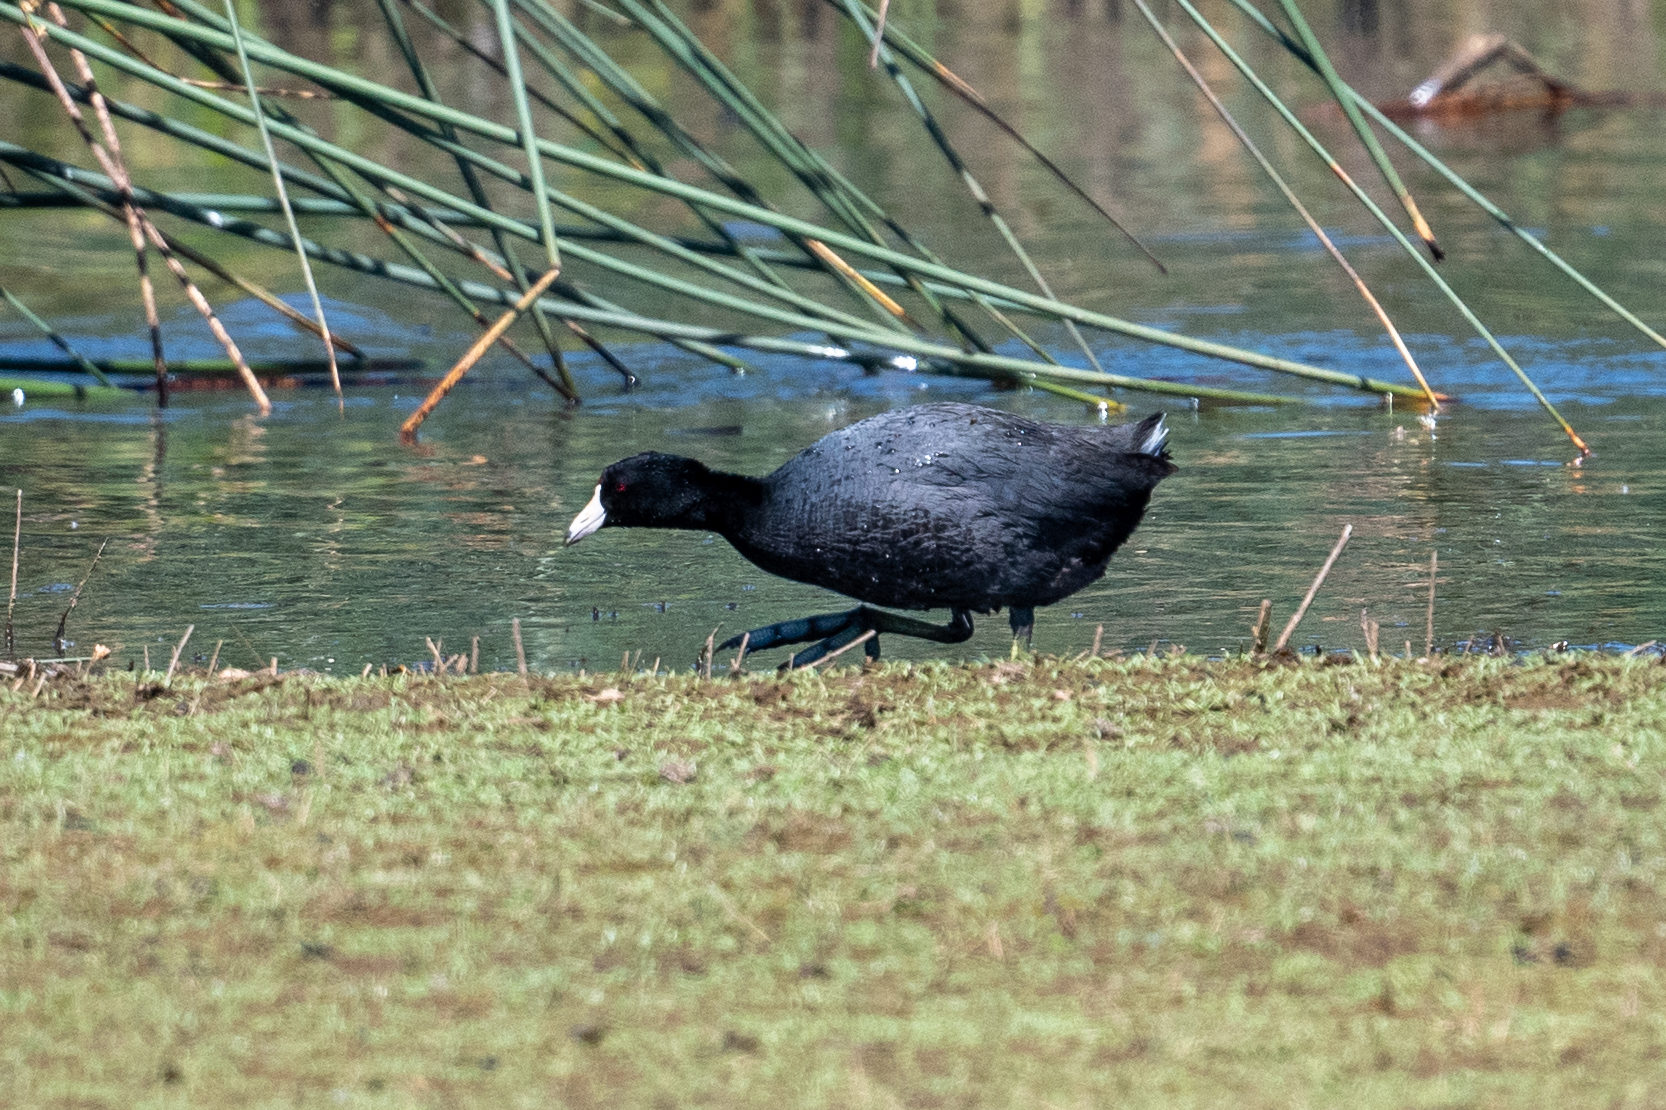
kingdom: Animalia
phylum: Chordata
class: Aves
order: Gruiformes
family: Rallidae
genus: Fulica
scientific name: Fulica americana
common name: American coot
